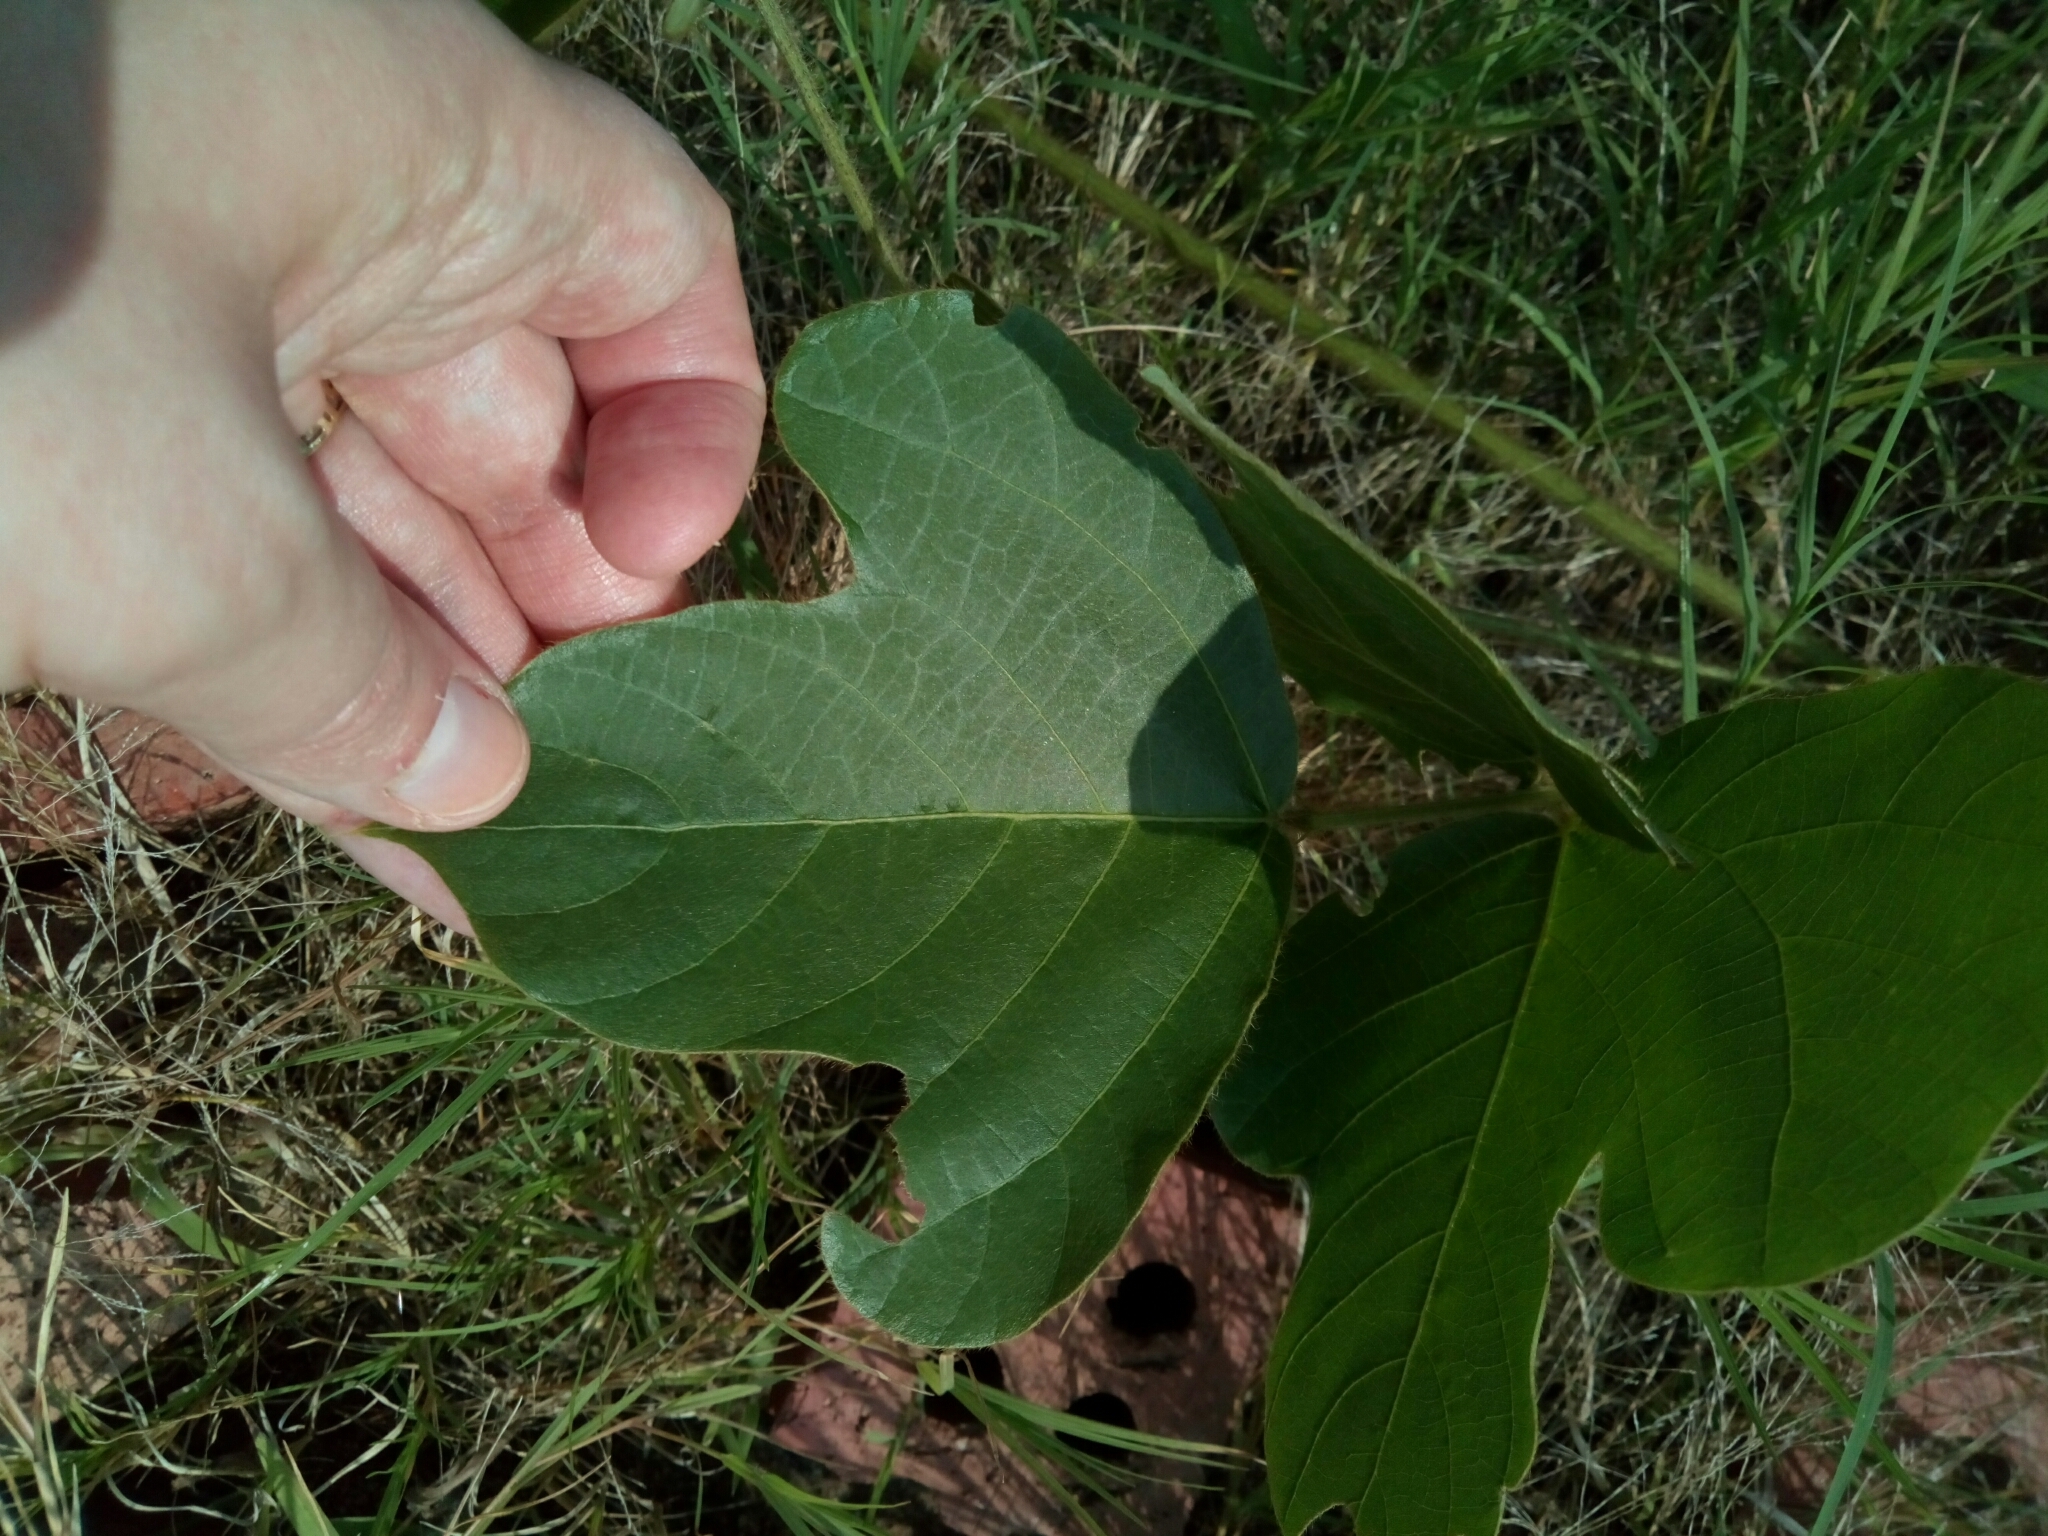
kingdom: Plantae
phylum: Tracheophyta
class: Magnoliopsida
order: Fabales
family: Fabaceae
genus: Pueraria
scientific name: Pueraria montana
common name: Kudzu
